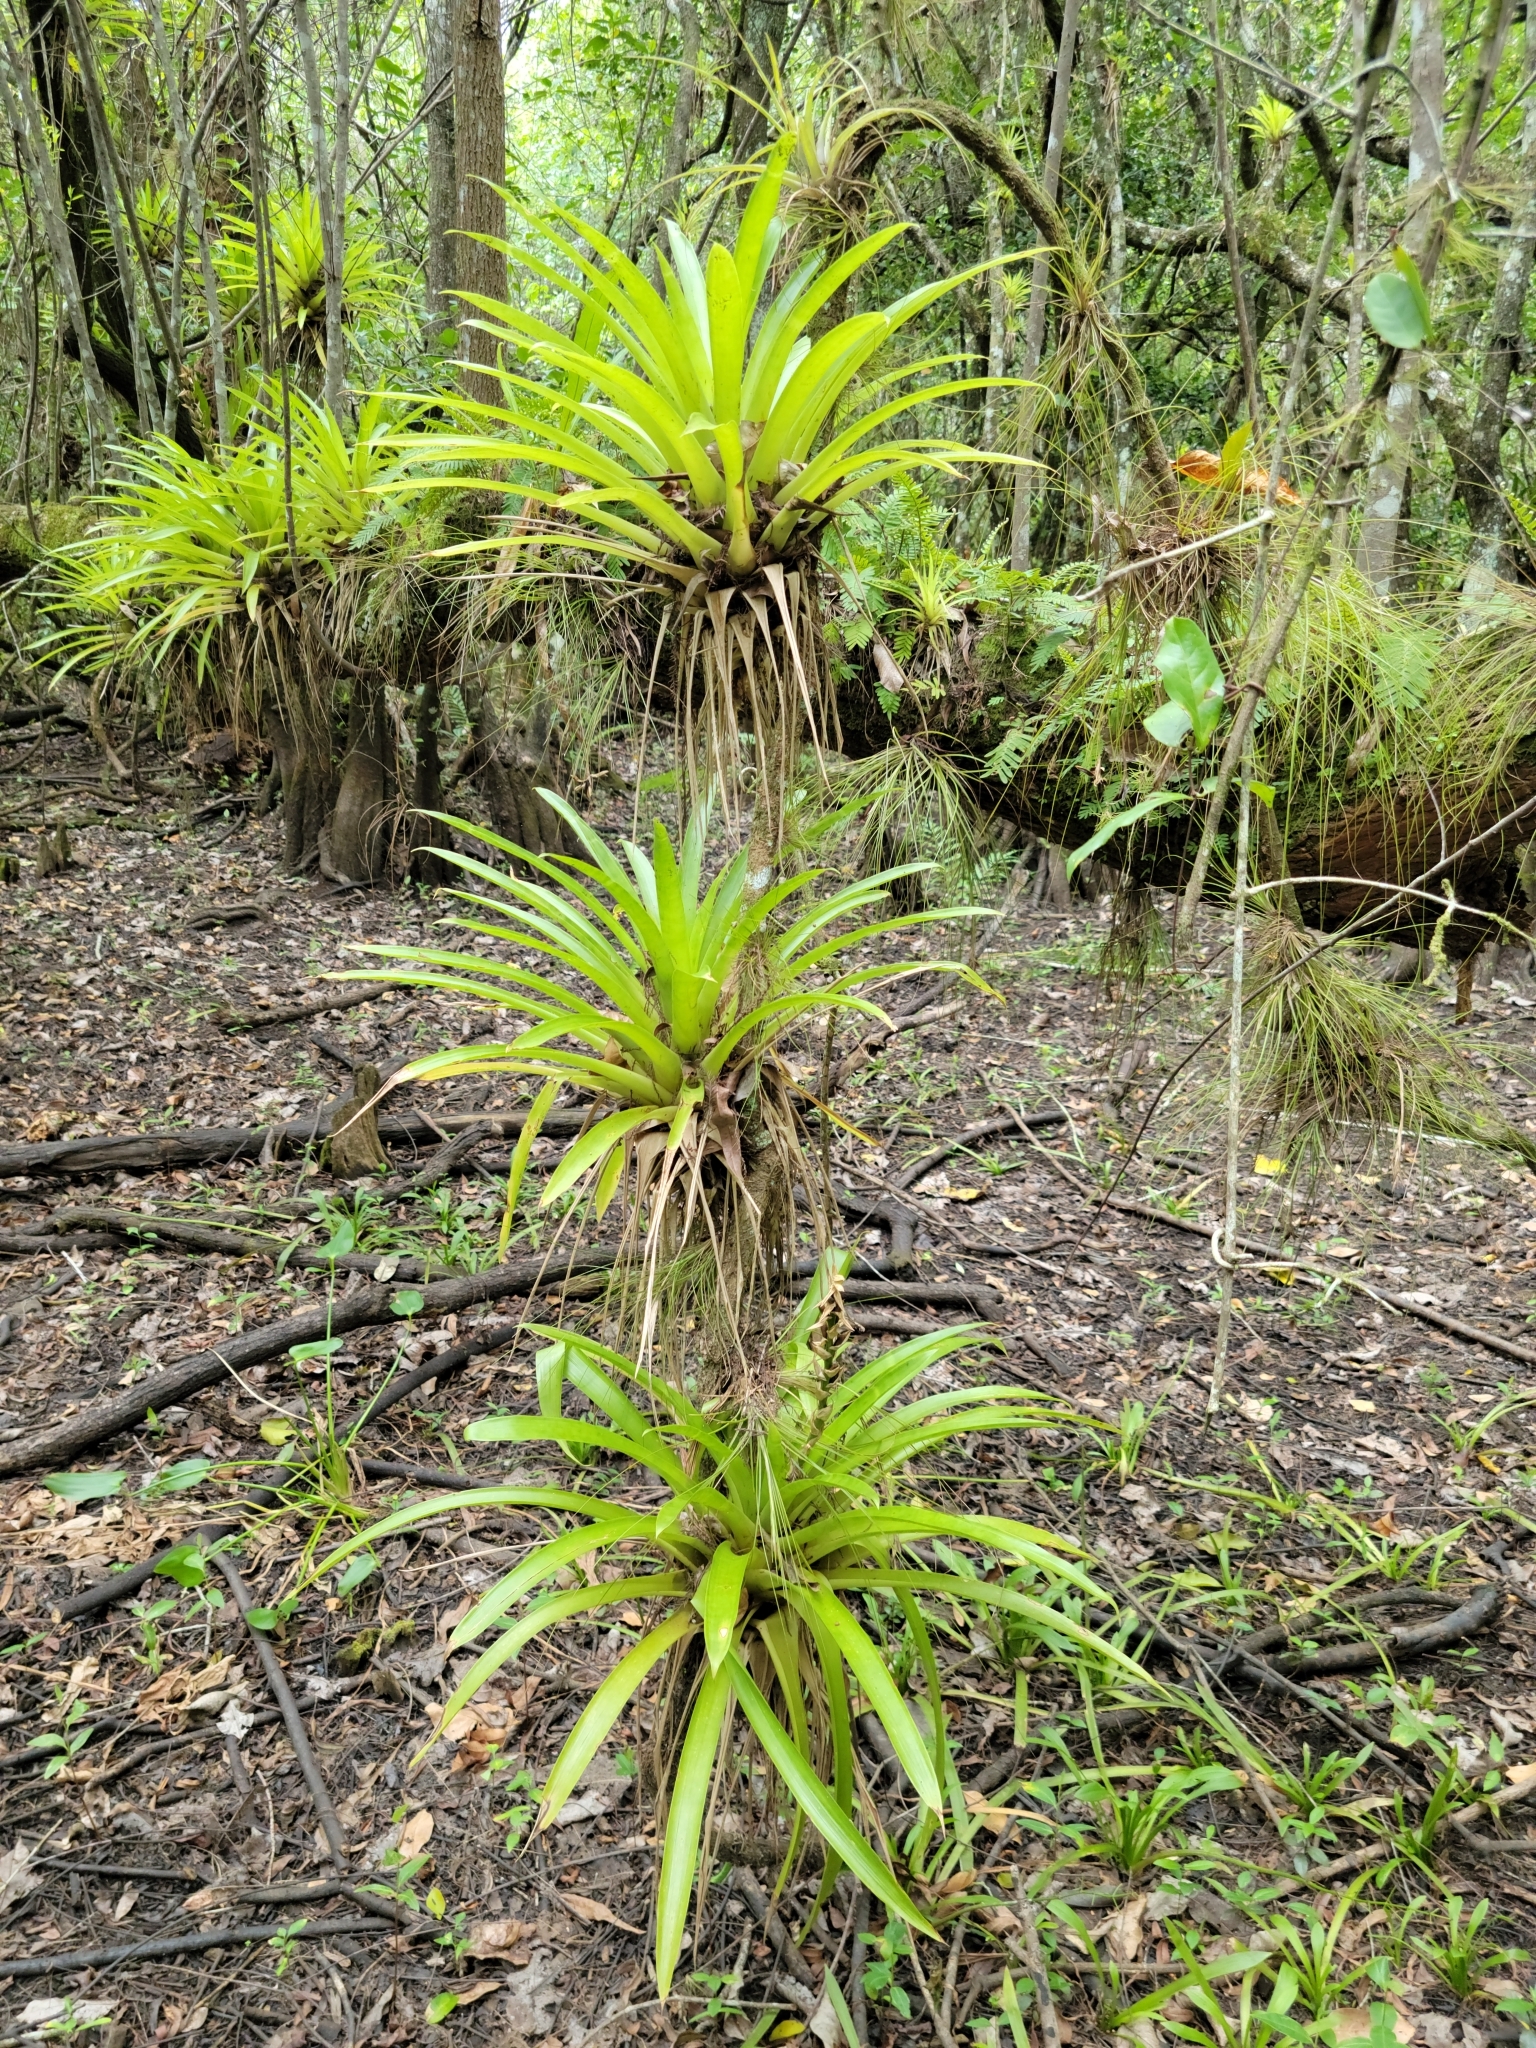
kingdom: Plantae
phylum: Tracheophyta
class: Liliopsida
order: Poales
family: Bromeliaceae
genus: Guzmania
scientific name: Guzmania monostachia
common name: West indian tufted airplant
